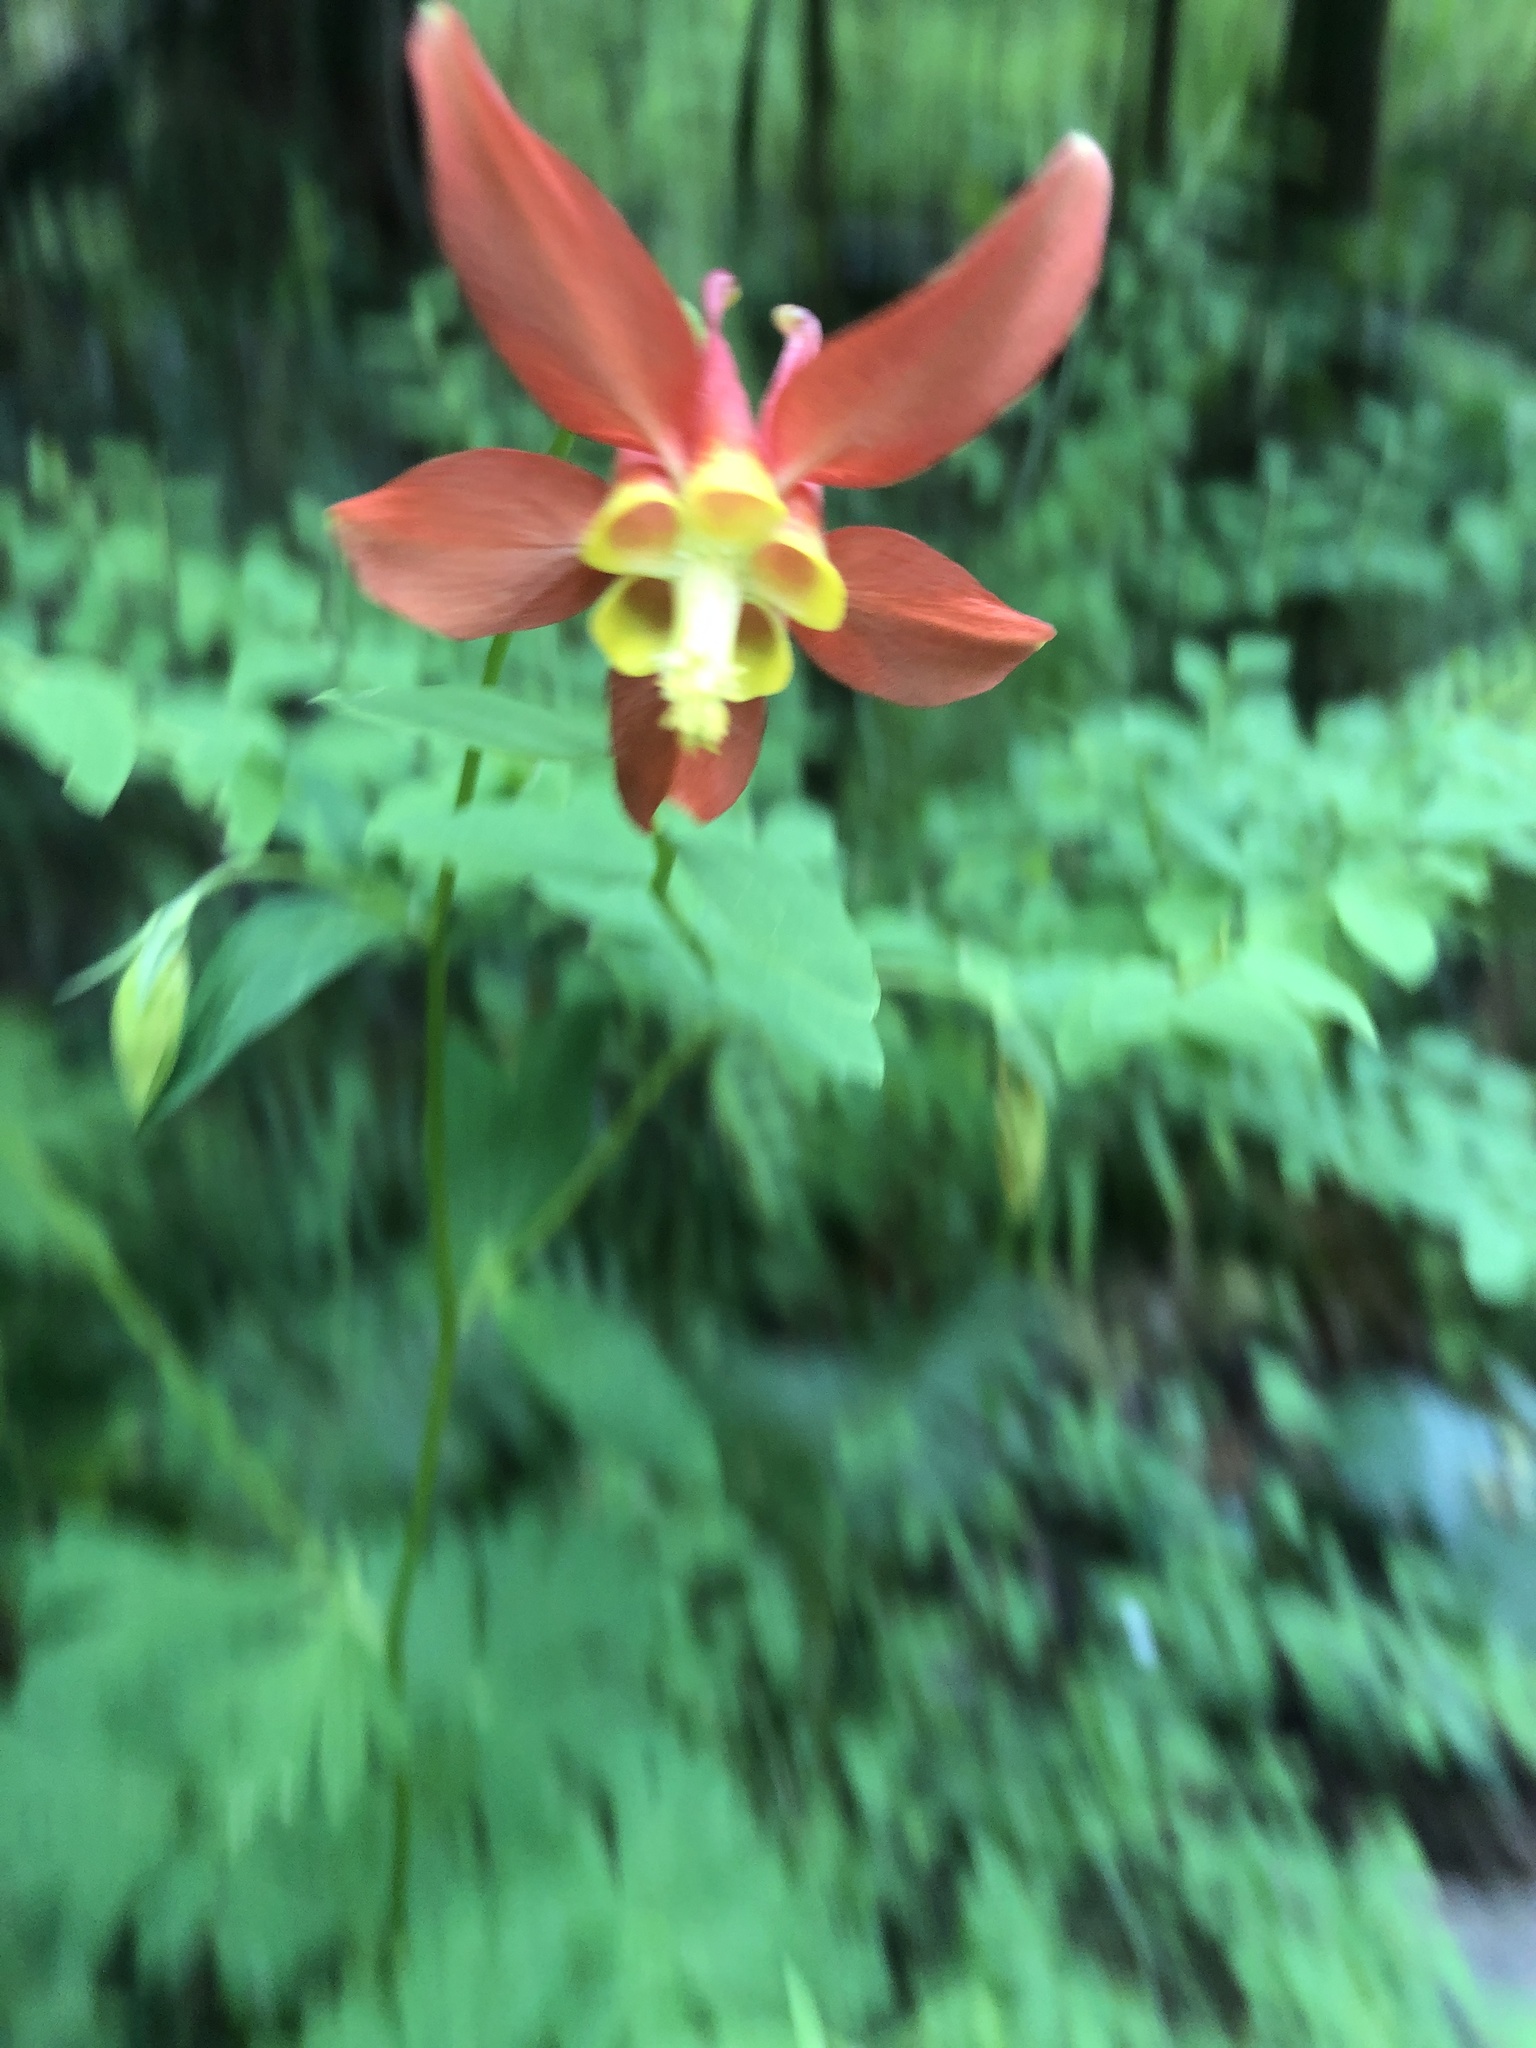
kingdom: Plantae
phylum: Tracheophyta
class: Magnoliopsida
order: Ranunculales
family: Ranunculaceae
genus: Aquilegia
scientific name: Aquilegia formosa
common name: Sitka columbine
